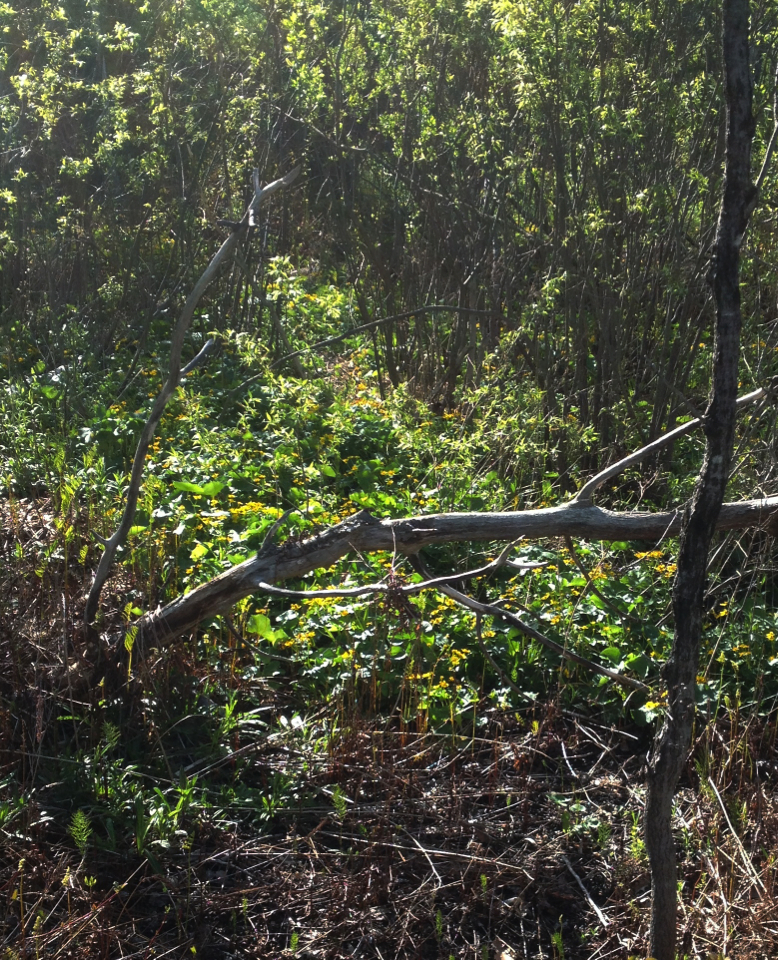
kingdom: Plantae
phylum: Tracheophyta
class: Magnoliopsida
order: Ranunculales
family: Ranunculaceae
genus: Caltha
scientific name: Caltha palustris
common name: Marsh marigold
